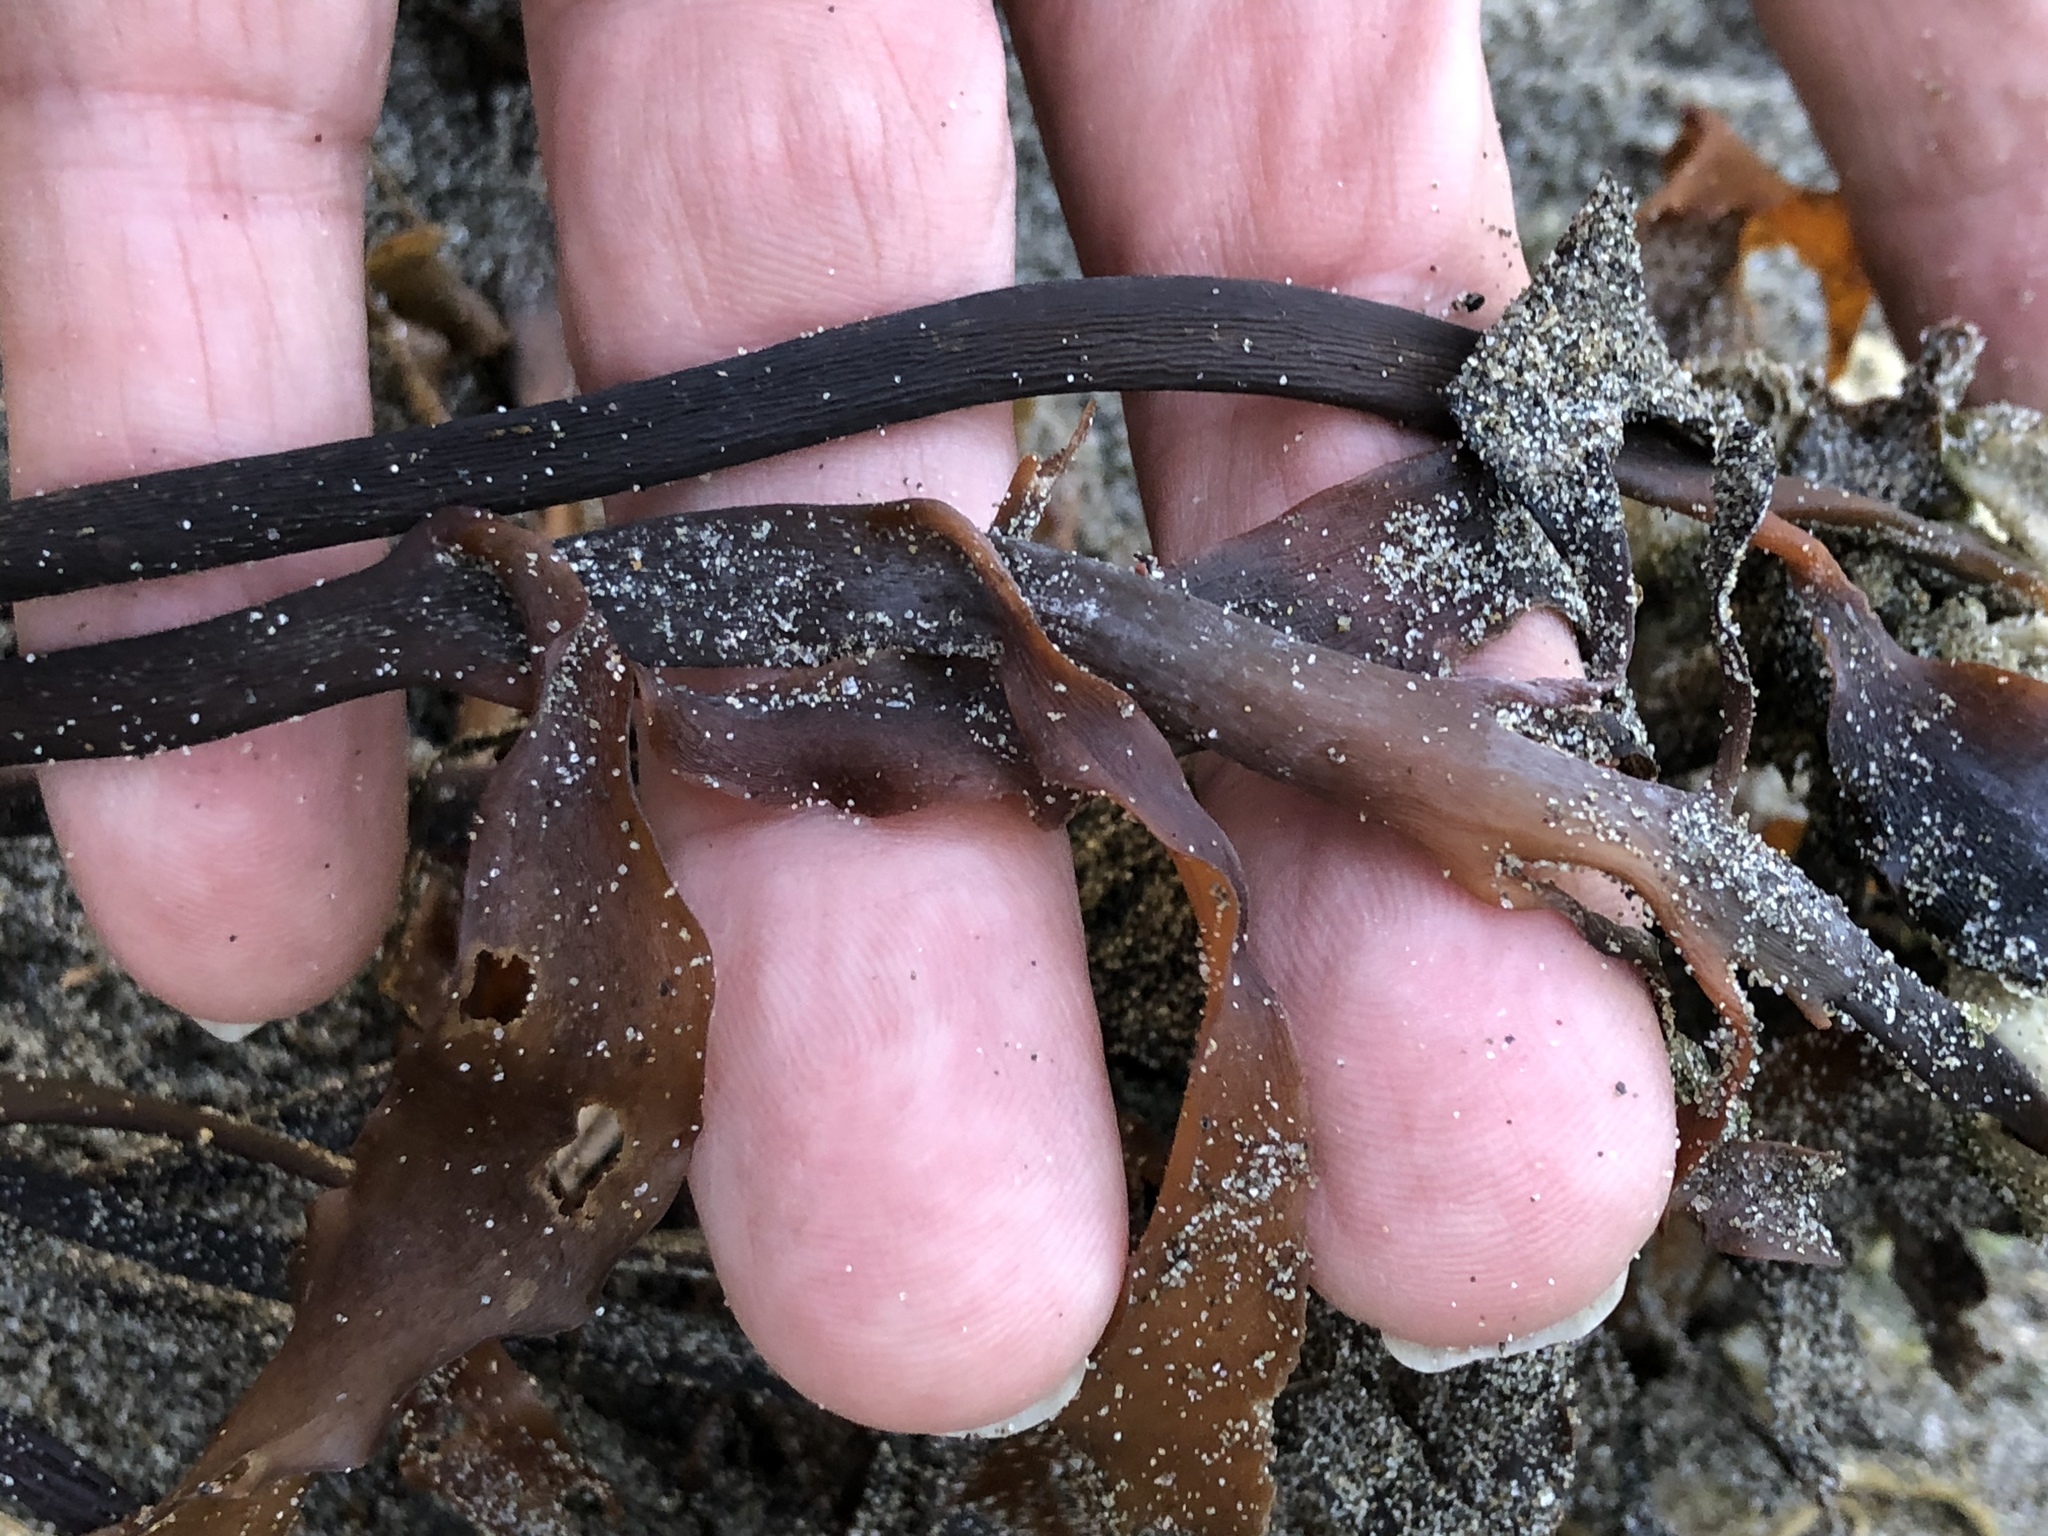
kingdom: Chromista
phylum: Ochrophyta
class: Phaeophyceae
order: Laminariales
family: Alariaceae
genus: Pterygophora
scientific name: Pterygophora californica
